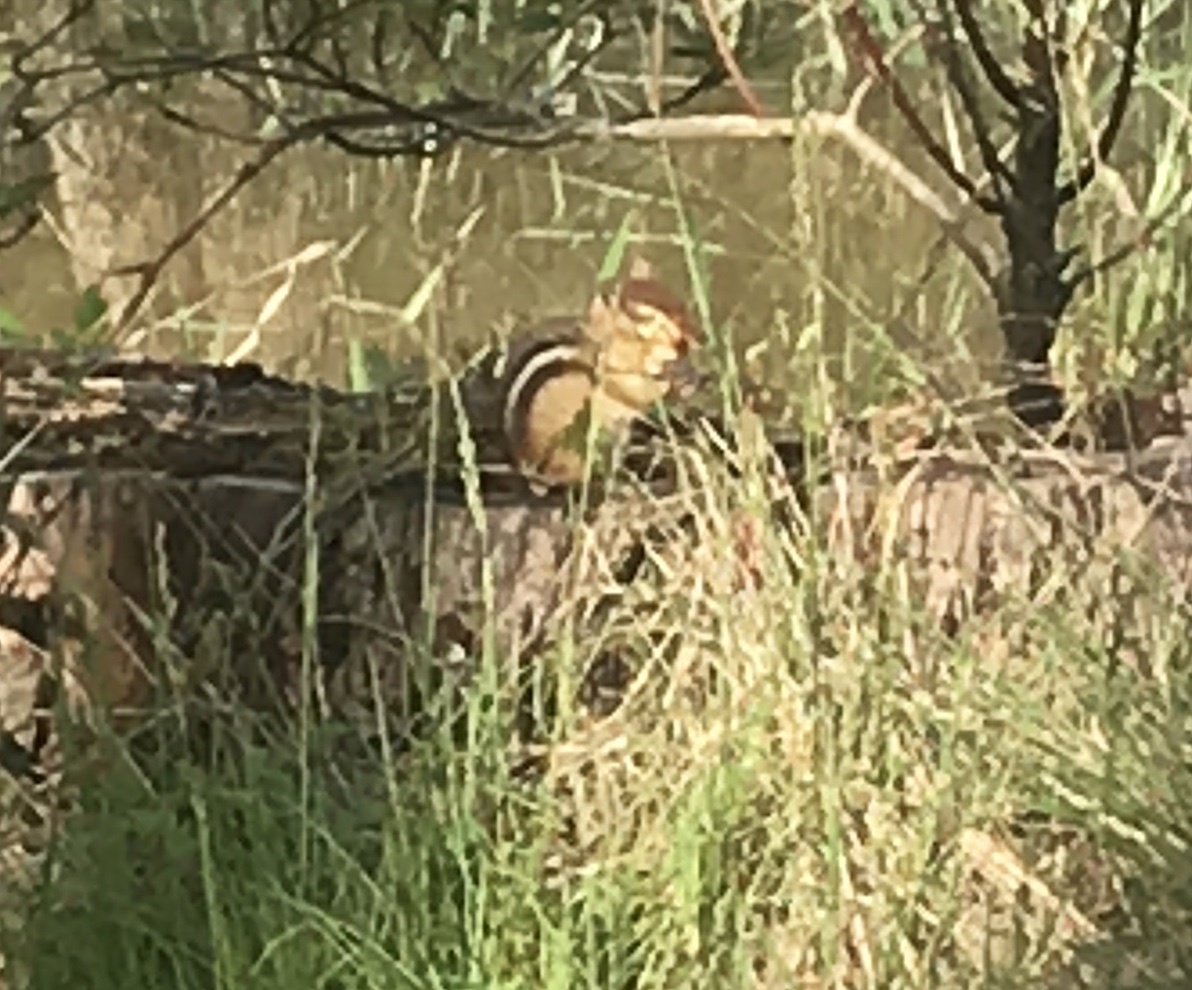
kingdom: Animalia
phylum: Chordata
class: Mammalia
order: Rodentia
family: Sciuridae
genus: Tamias
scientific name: Tamias striatus
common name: Eastern chipmunk
